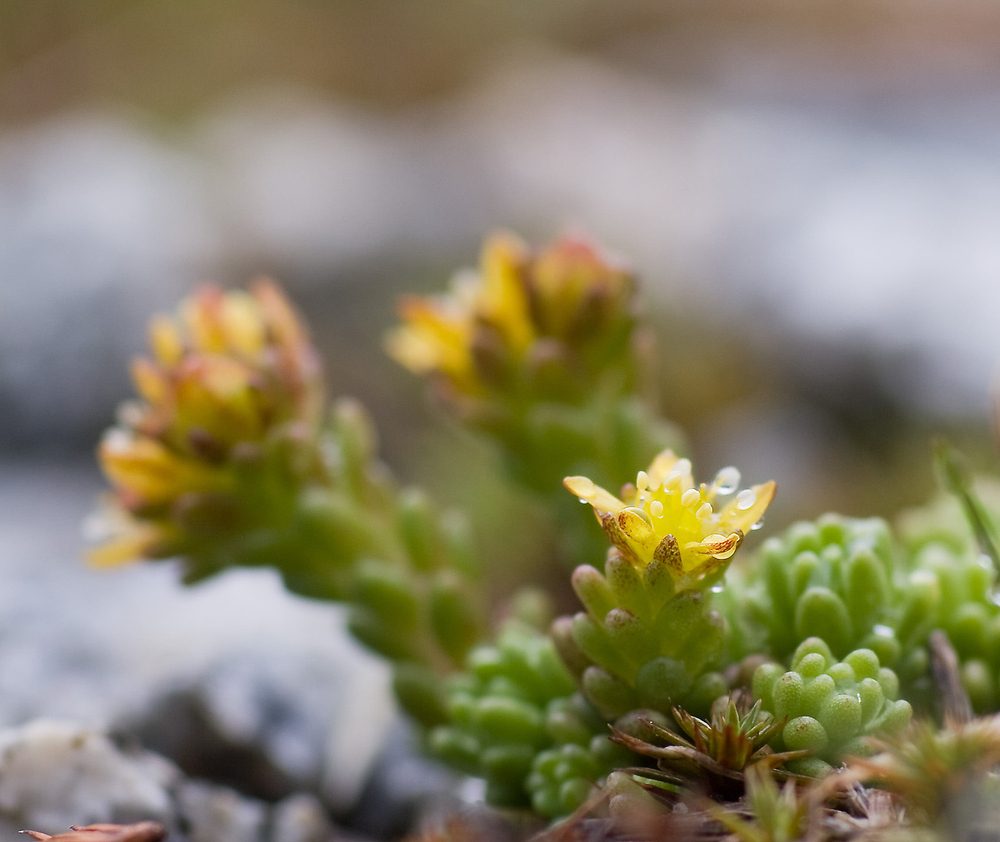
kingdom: Plantae
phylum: Tracheophyta
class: Magnoliopsida
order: Saxifragales
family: Crassulaceae
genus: Sedum
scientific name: Sedum alpestre
